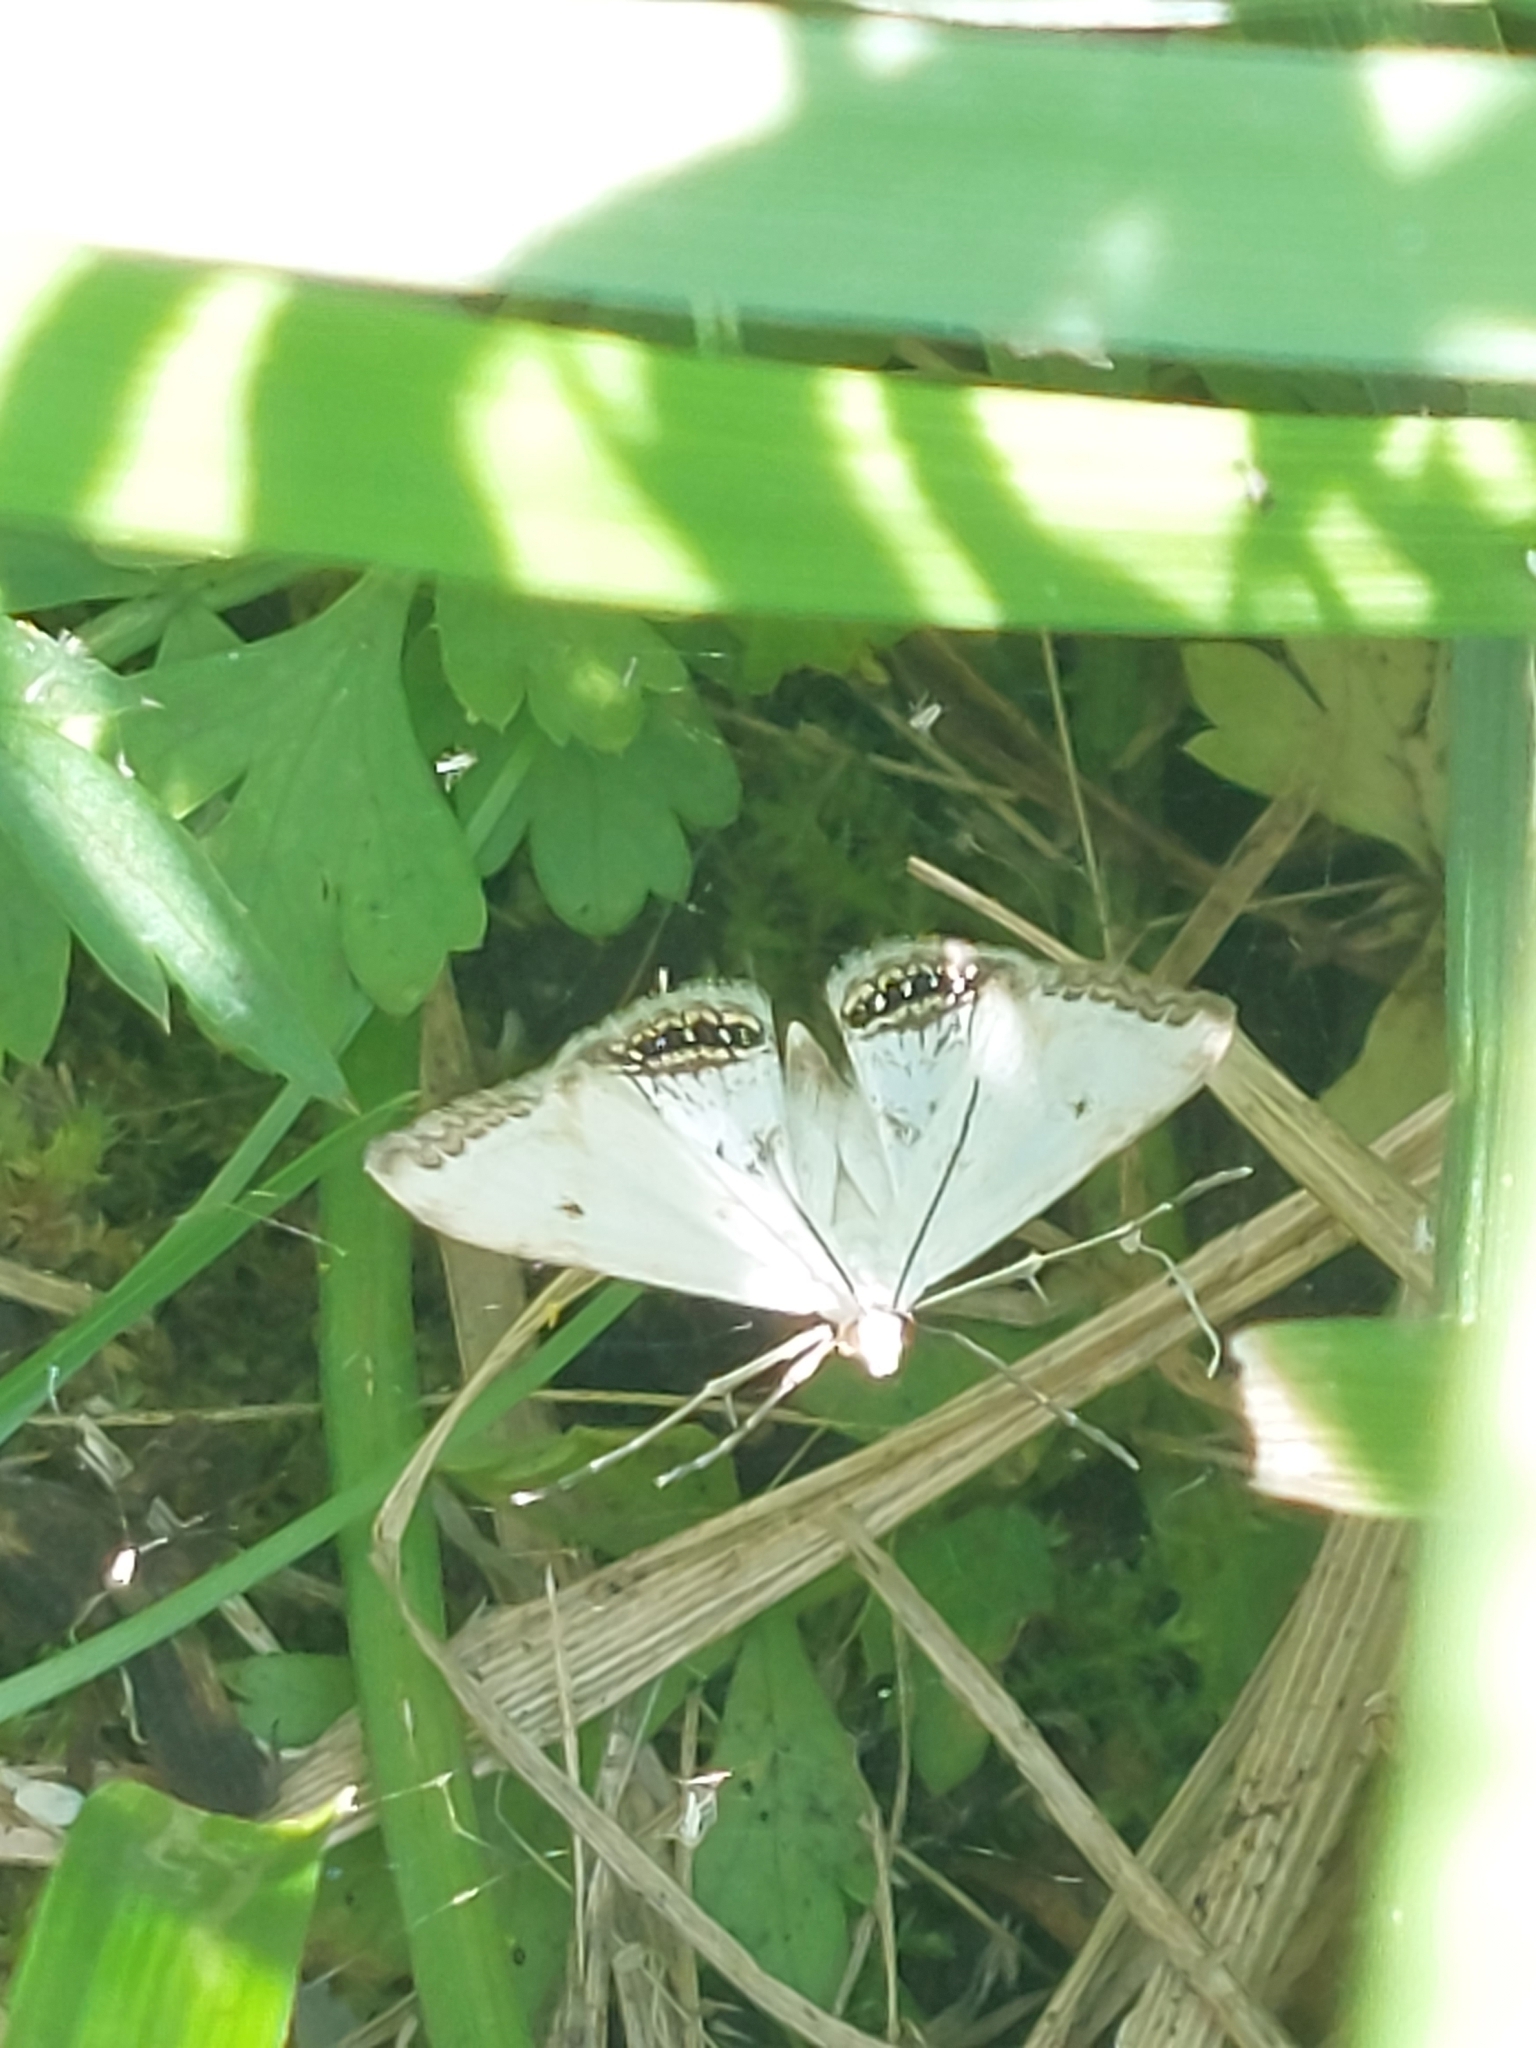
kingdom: Animalia
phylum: Arthropoda
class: Insecta
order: Lepidoptera
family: Crambidae
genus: Cataclysta
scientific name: Cataclysta lemnata
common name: Small china-mark
